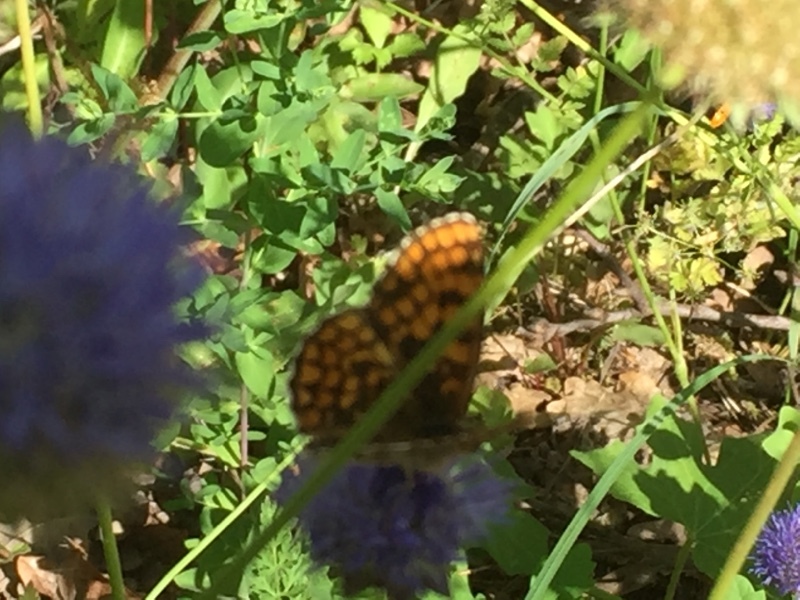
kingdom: Animalia
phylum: Arthropoda
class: Insecta
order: Lepidoptera
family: Nymphalidae
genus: Mellicta
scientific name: Mellicta athalia
